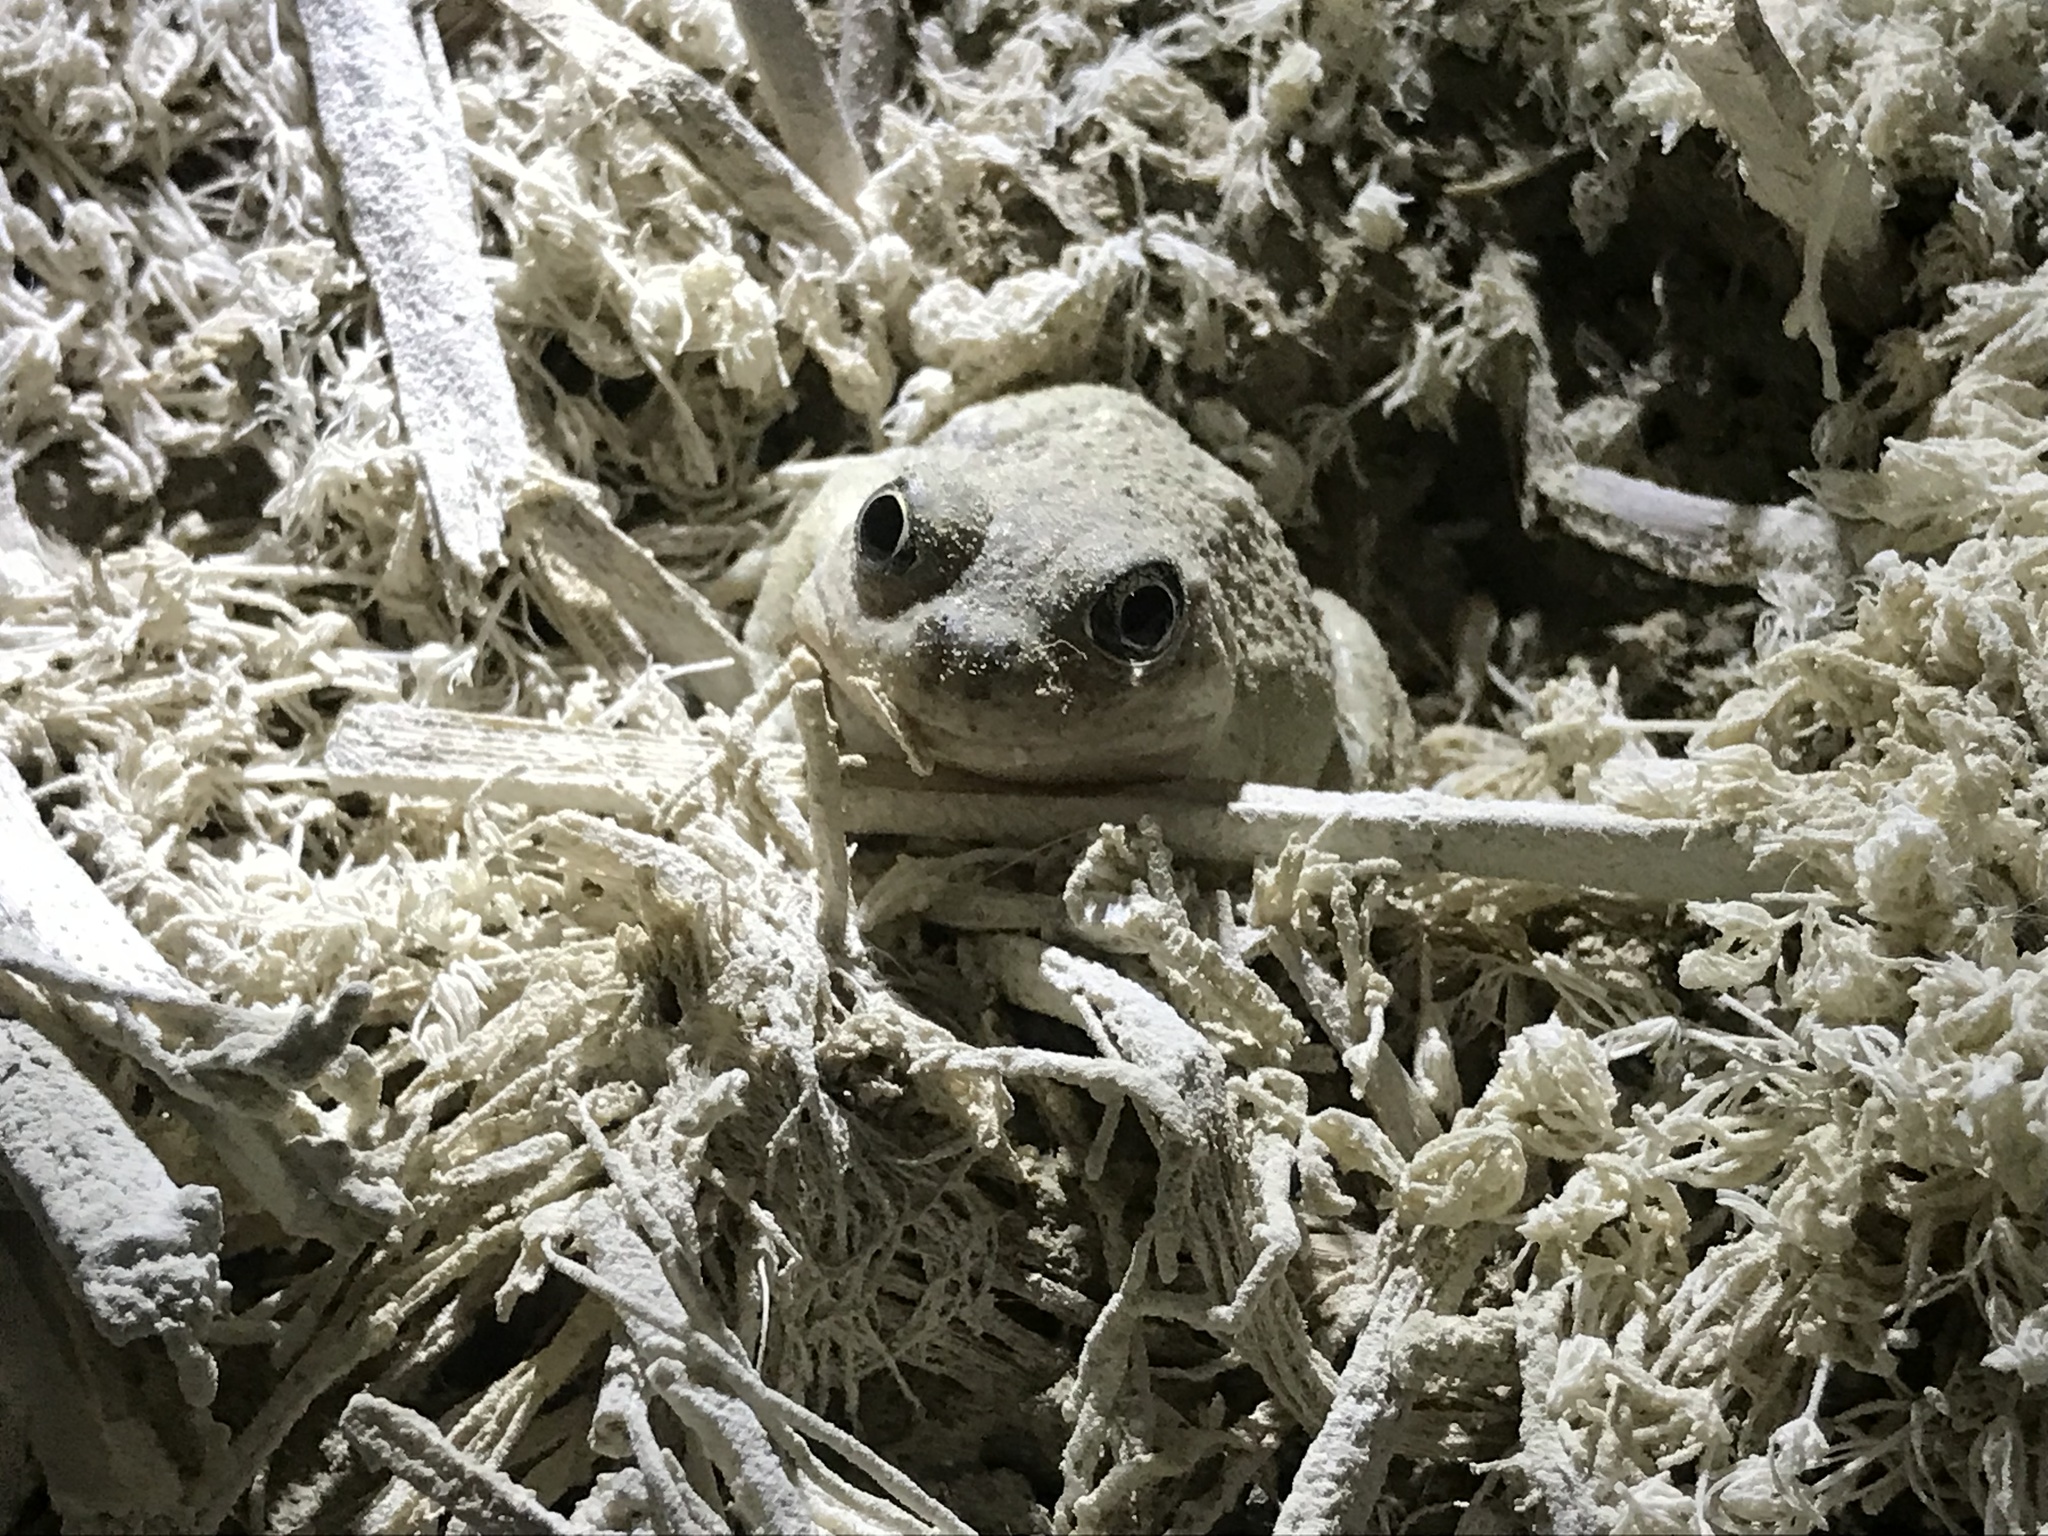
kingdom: Animalia
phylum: Chordata
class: Amphibia
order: Anura
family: Scaphiopodidae
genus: Spea
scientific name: Spea intermontana
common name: Great basin spadefoot
